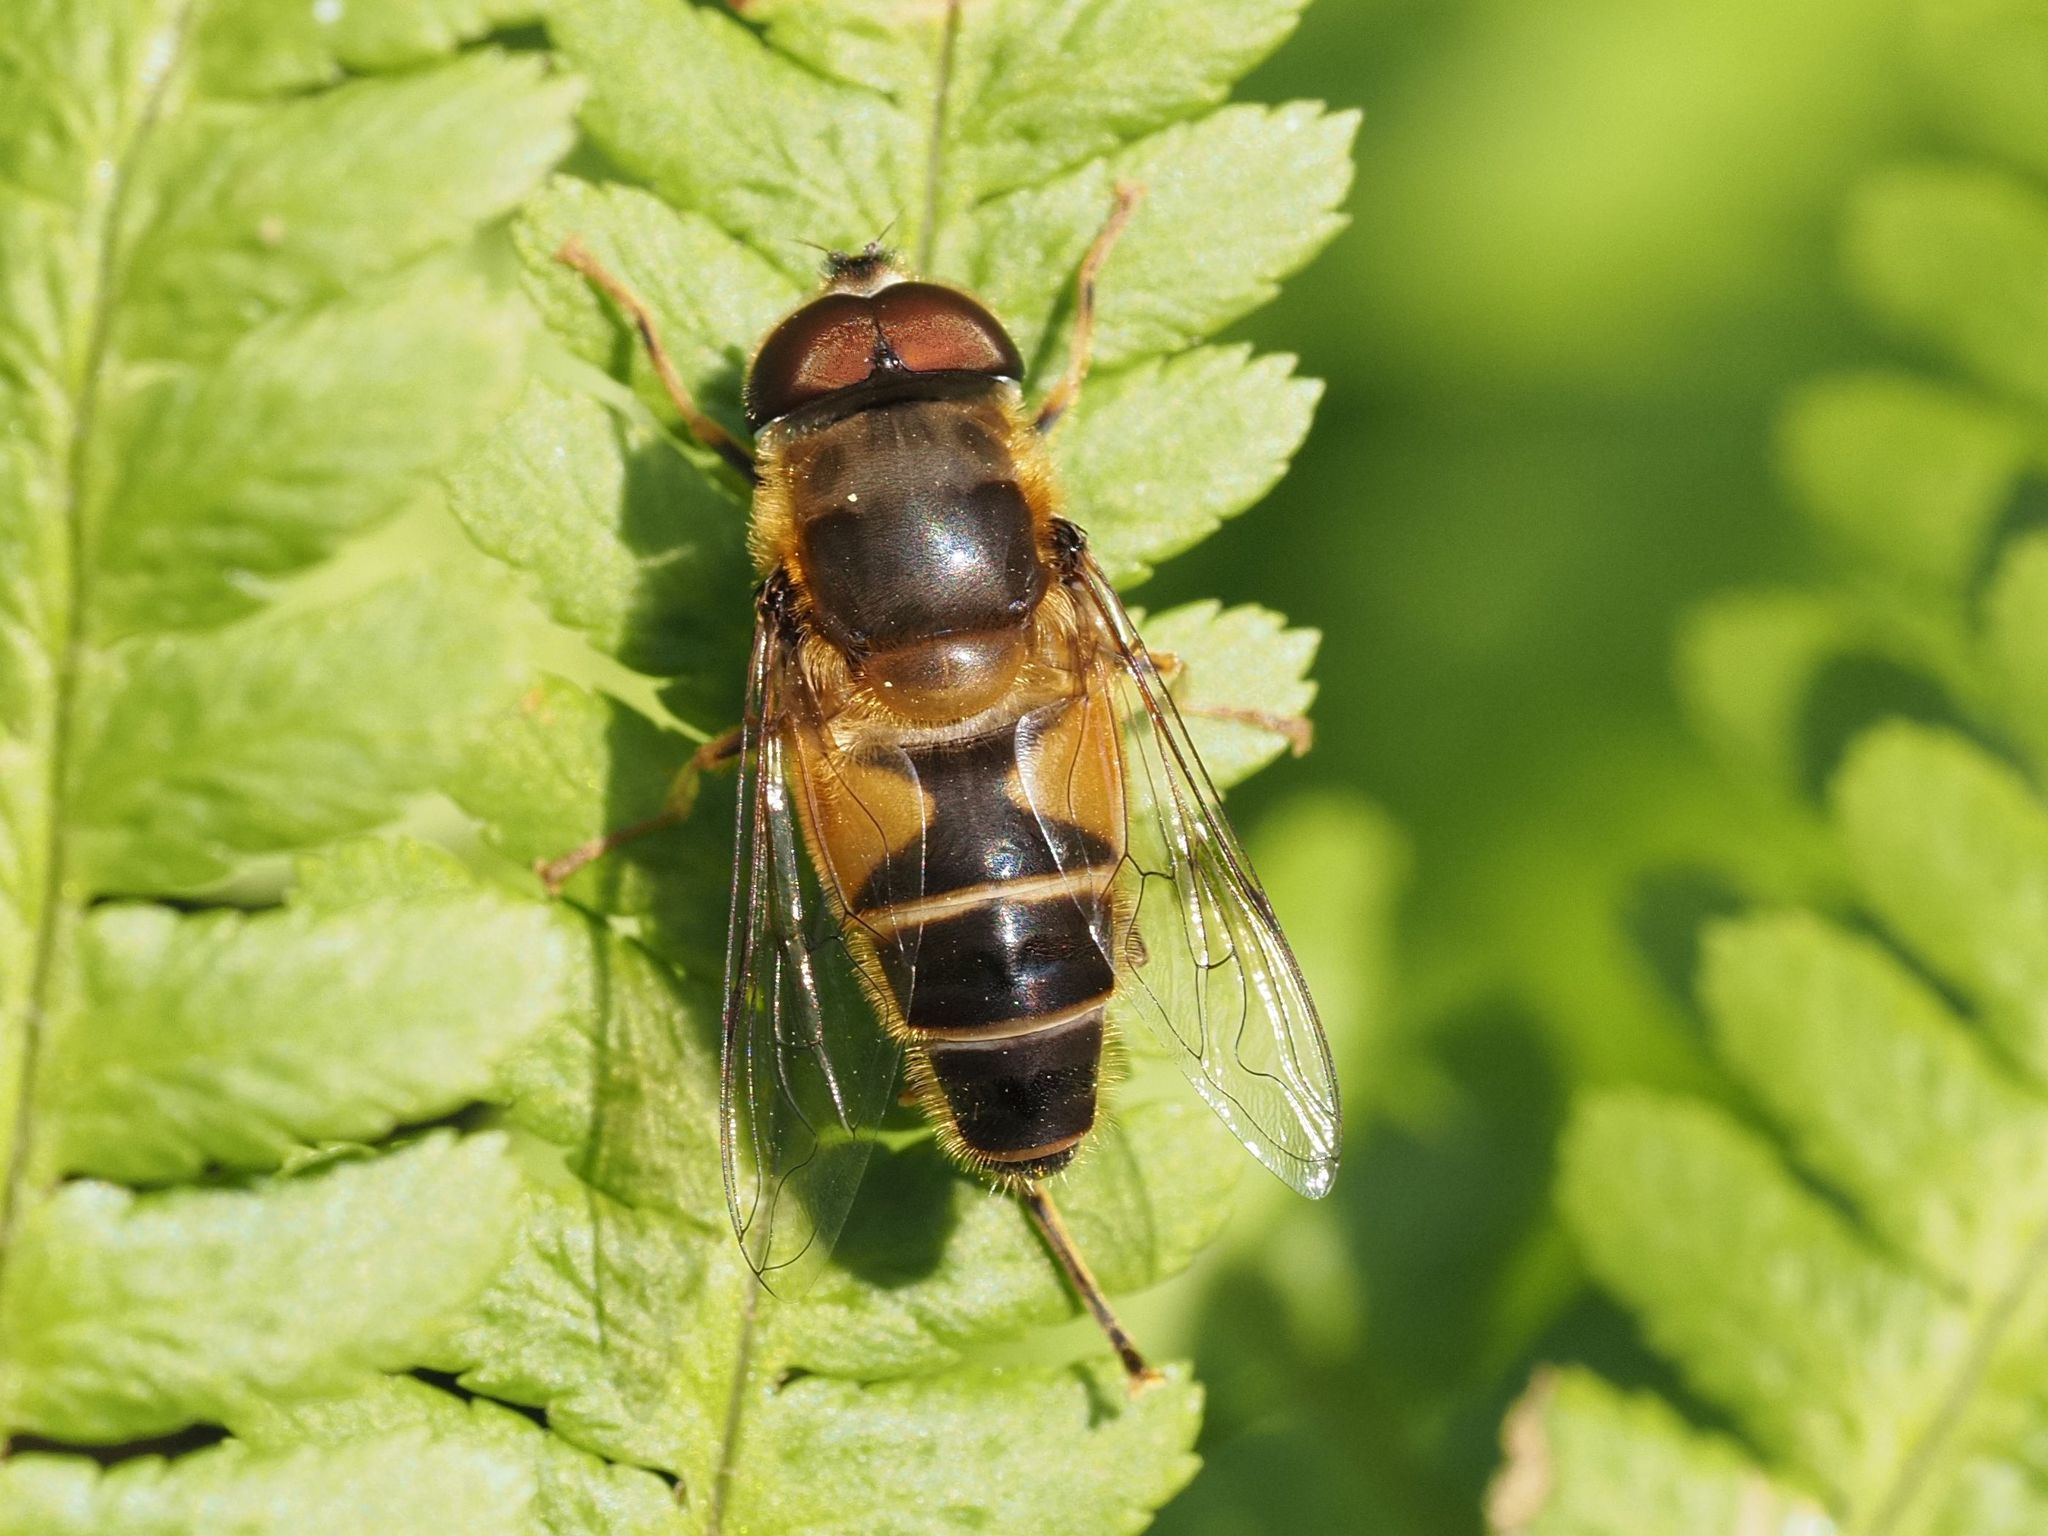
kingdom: Animalia
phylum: Arthropoda
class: Insecta
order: Diptera
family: Syrphidae
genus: Eristalis
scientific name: Eristalis pertinax
